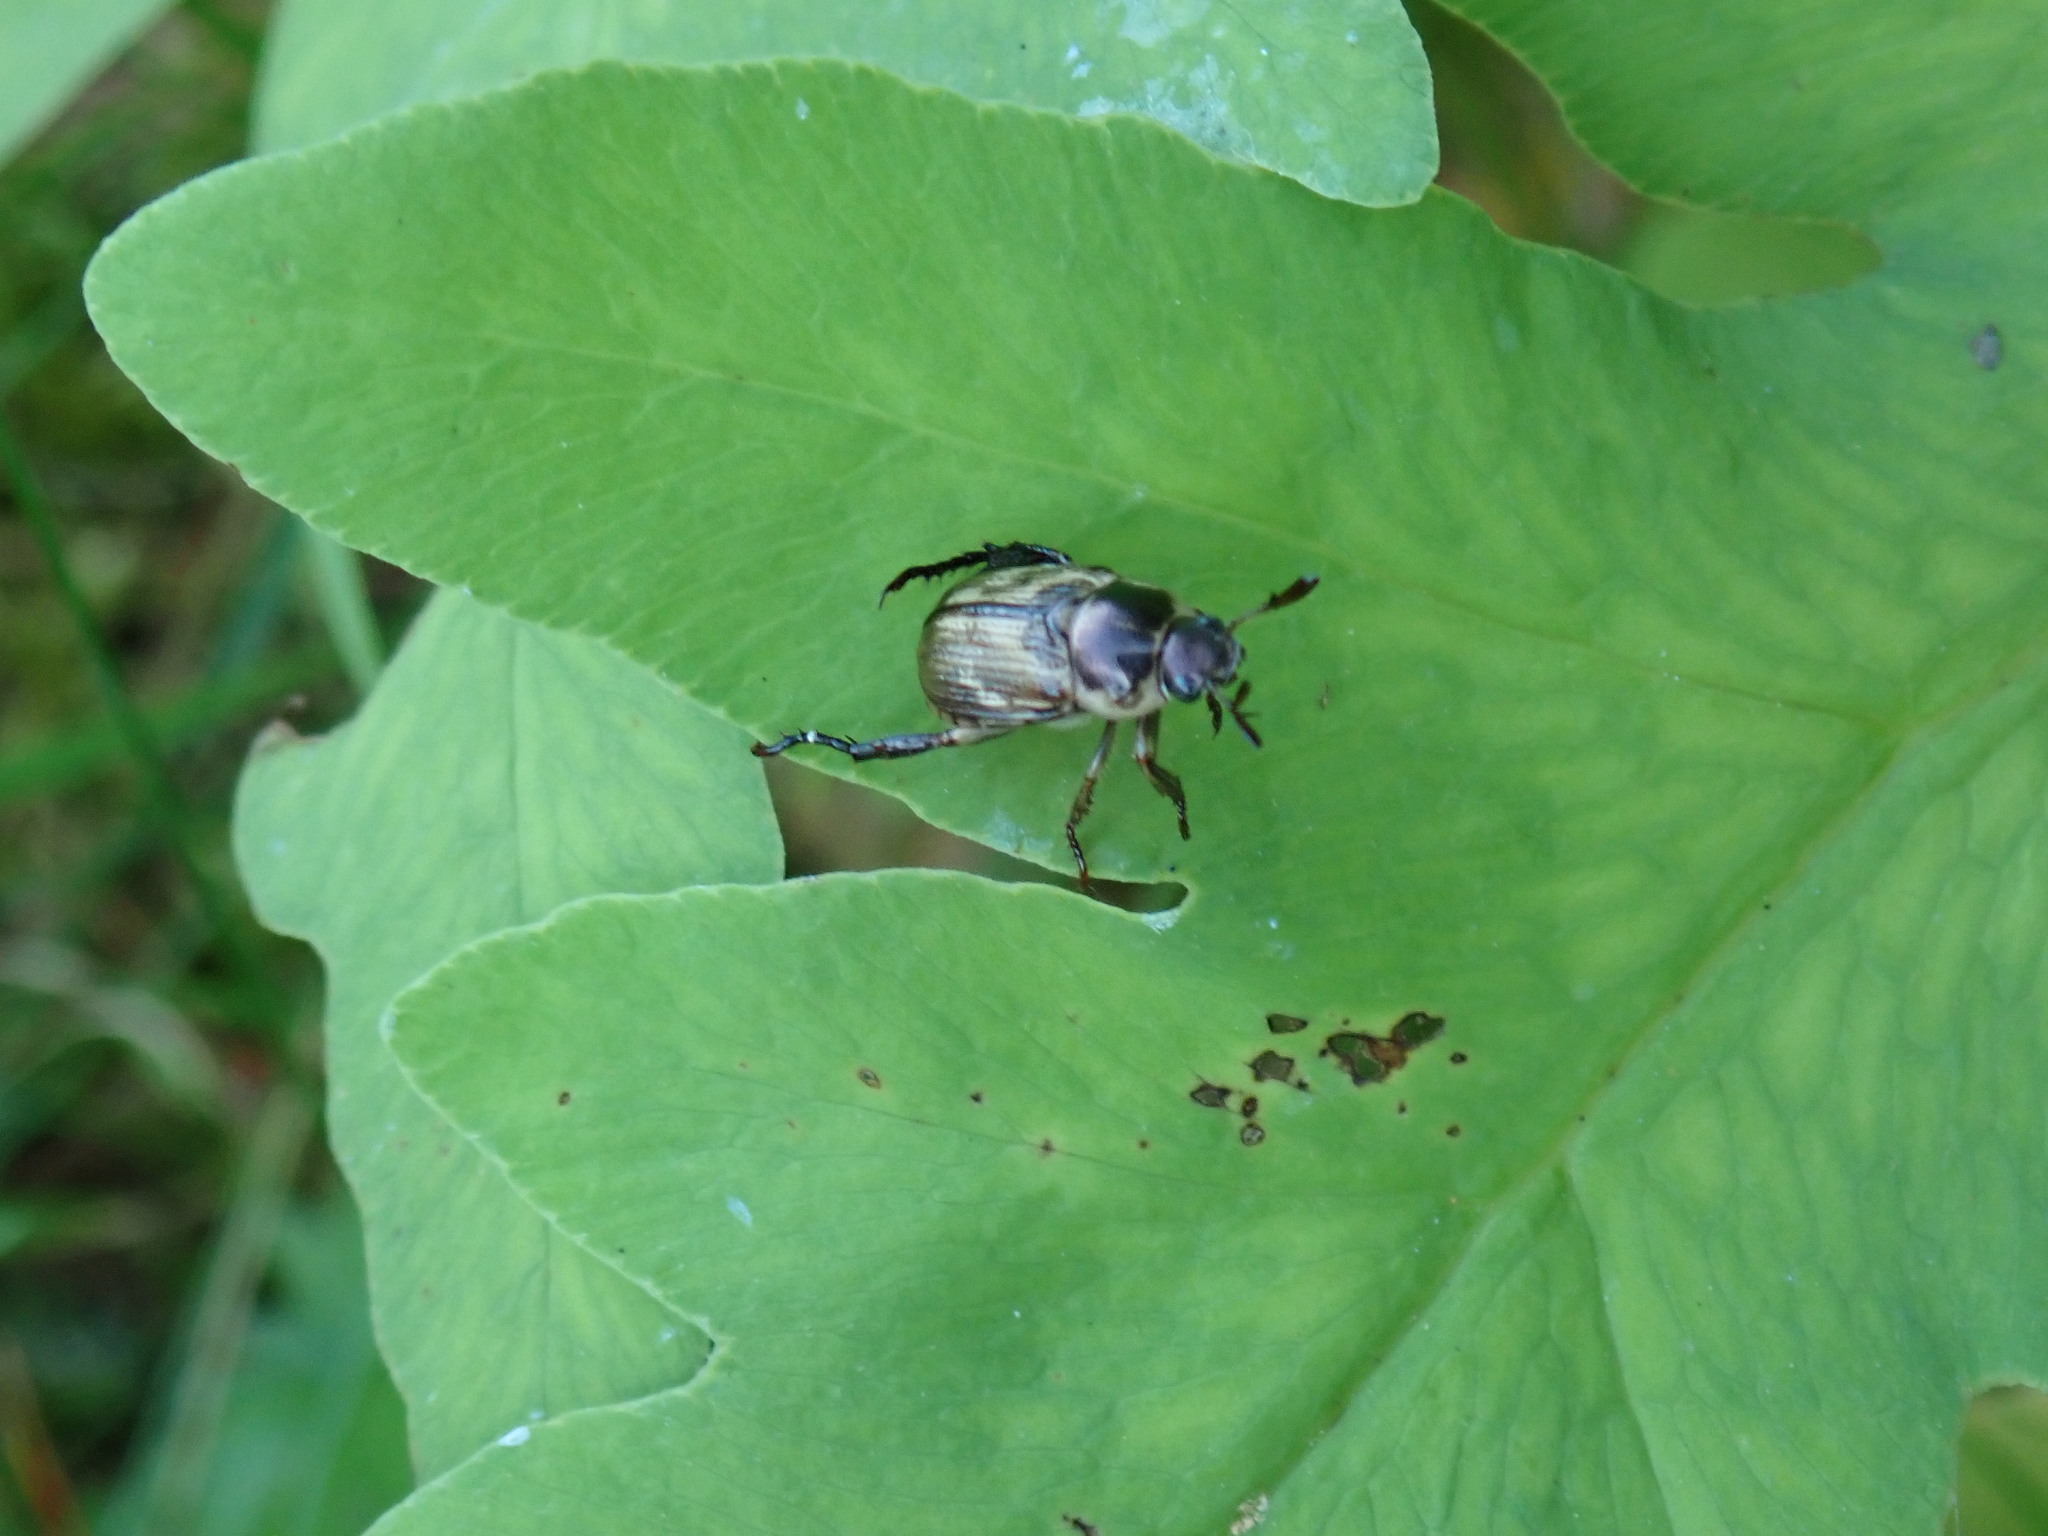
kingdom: Animalia
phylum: Arthropoda
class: Insecta
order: Coleoptera
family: Scarabaeidae
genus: Exomala
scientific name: Exomala orientalis
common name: Oriental beetle
